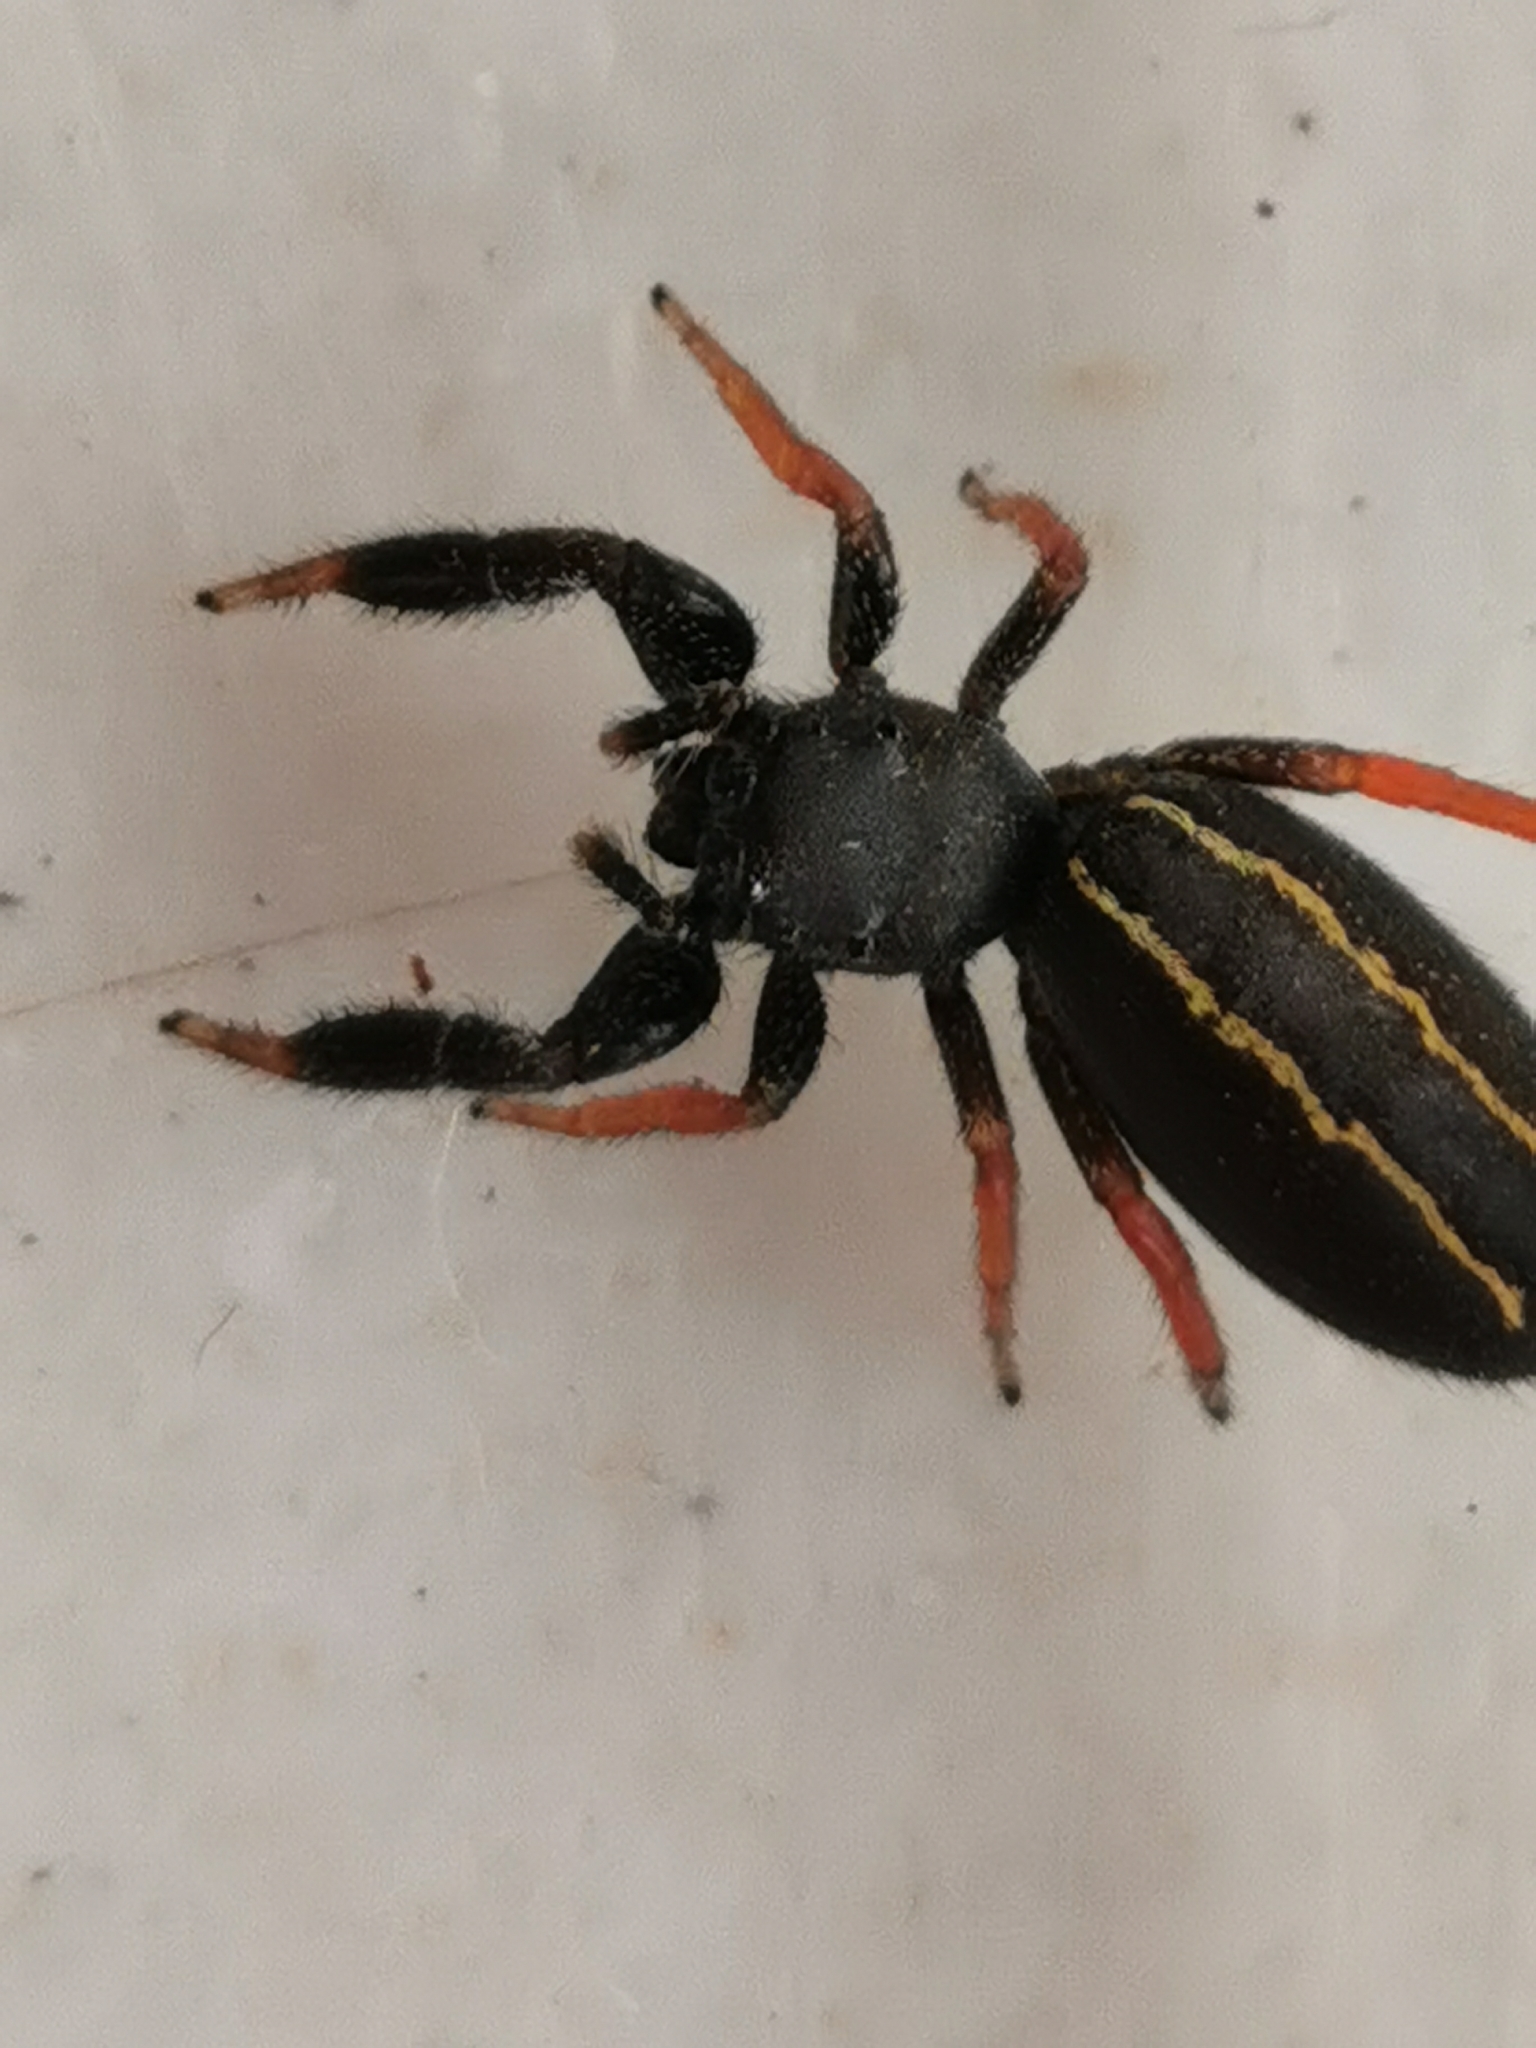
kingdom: Animalia
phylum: Arthropoda
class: Arachnida
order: Araneae
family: Salticidae
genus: Metacyrba
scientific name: Metacyrba taeniola
